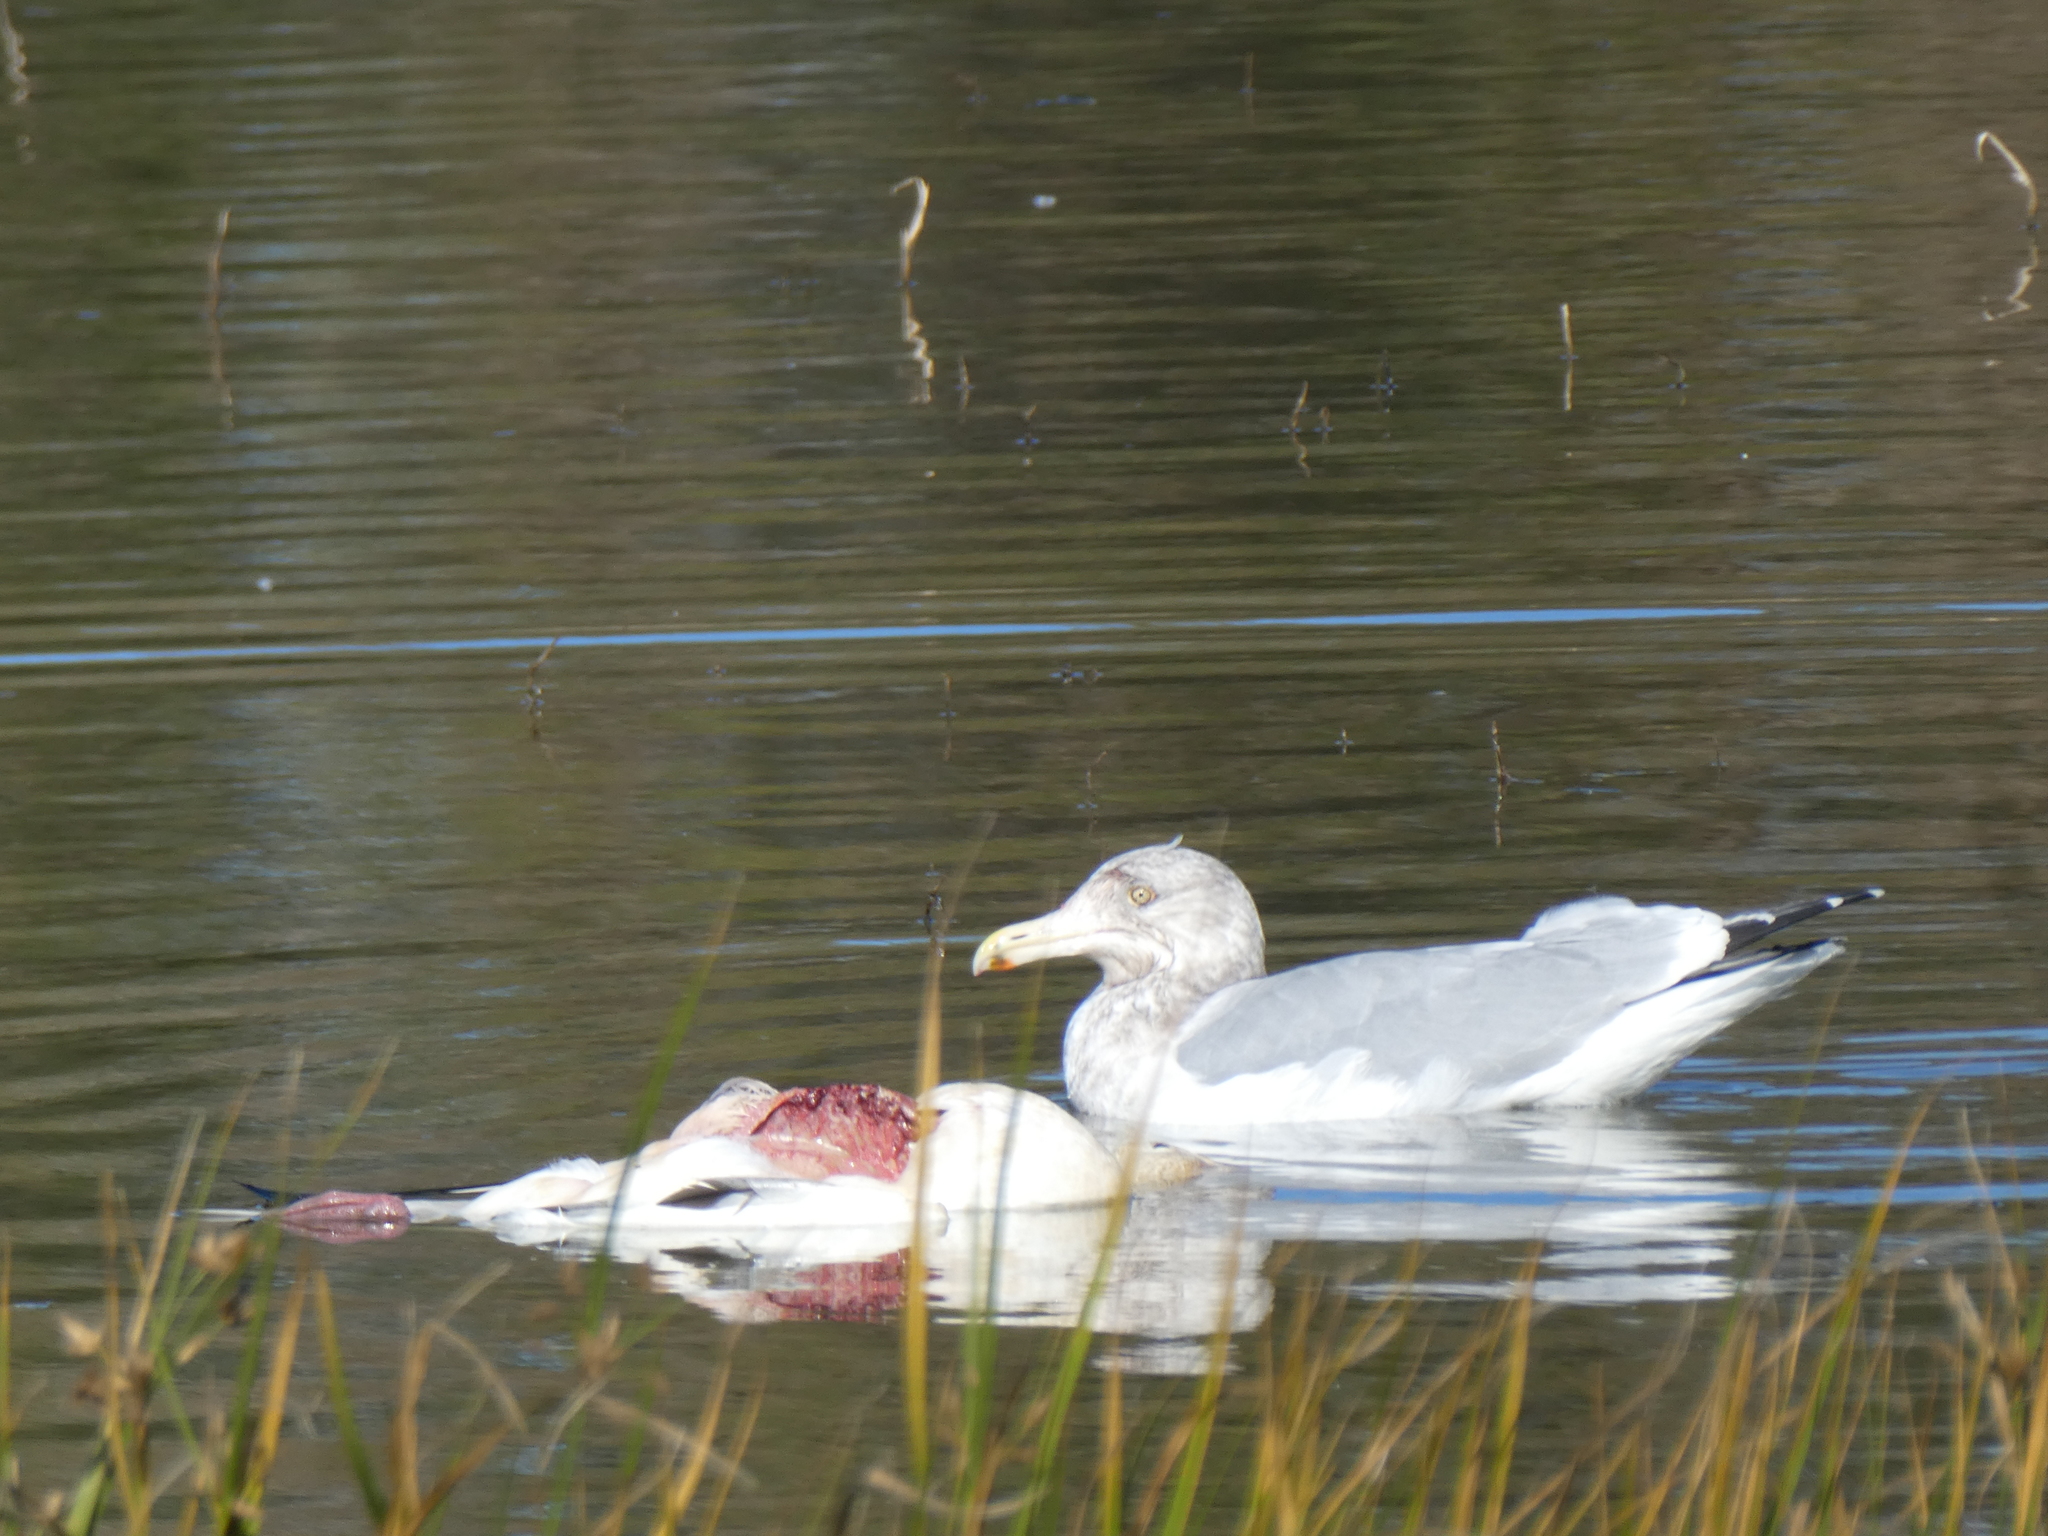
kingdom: Animalia
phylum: Chordata
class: Aves
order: Charadriiformes
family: Laridae
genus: Larus
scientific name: Larus argentatus
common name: Herring gull
